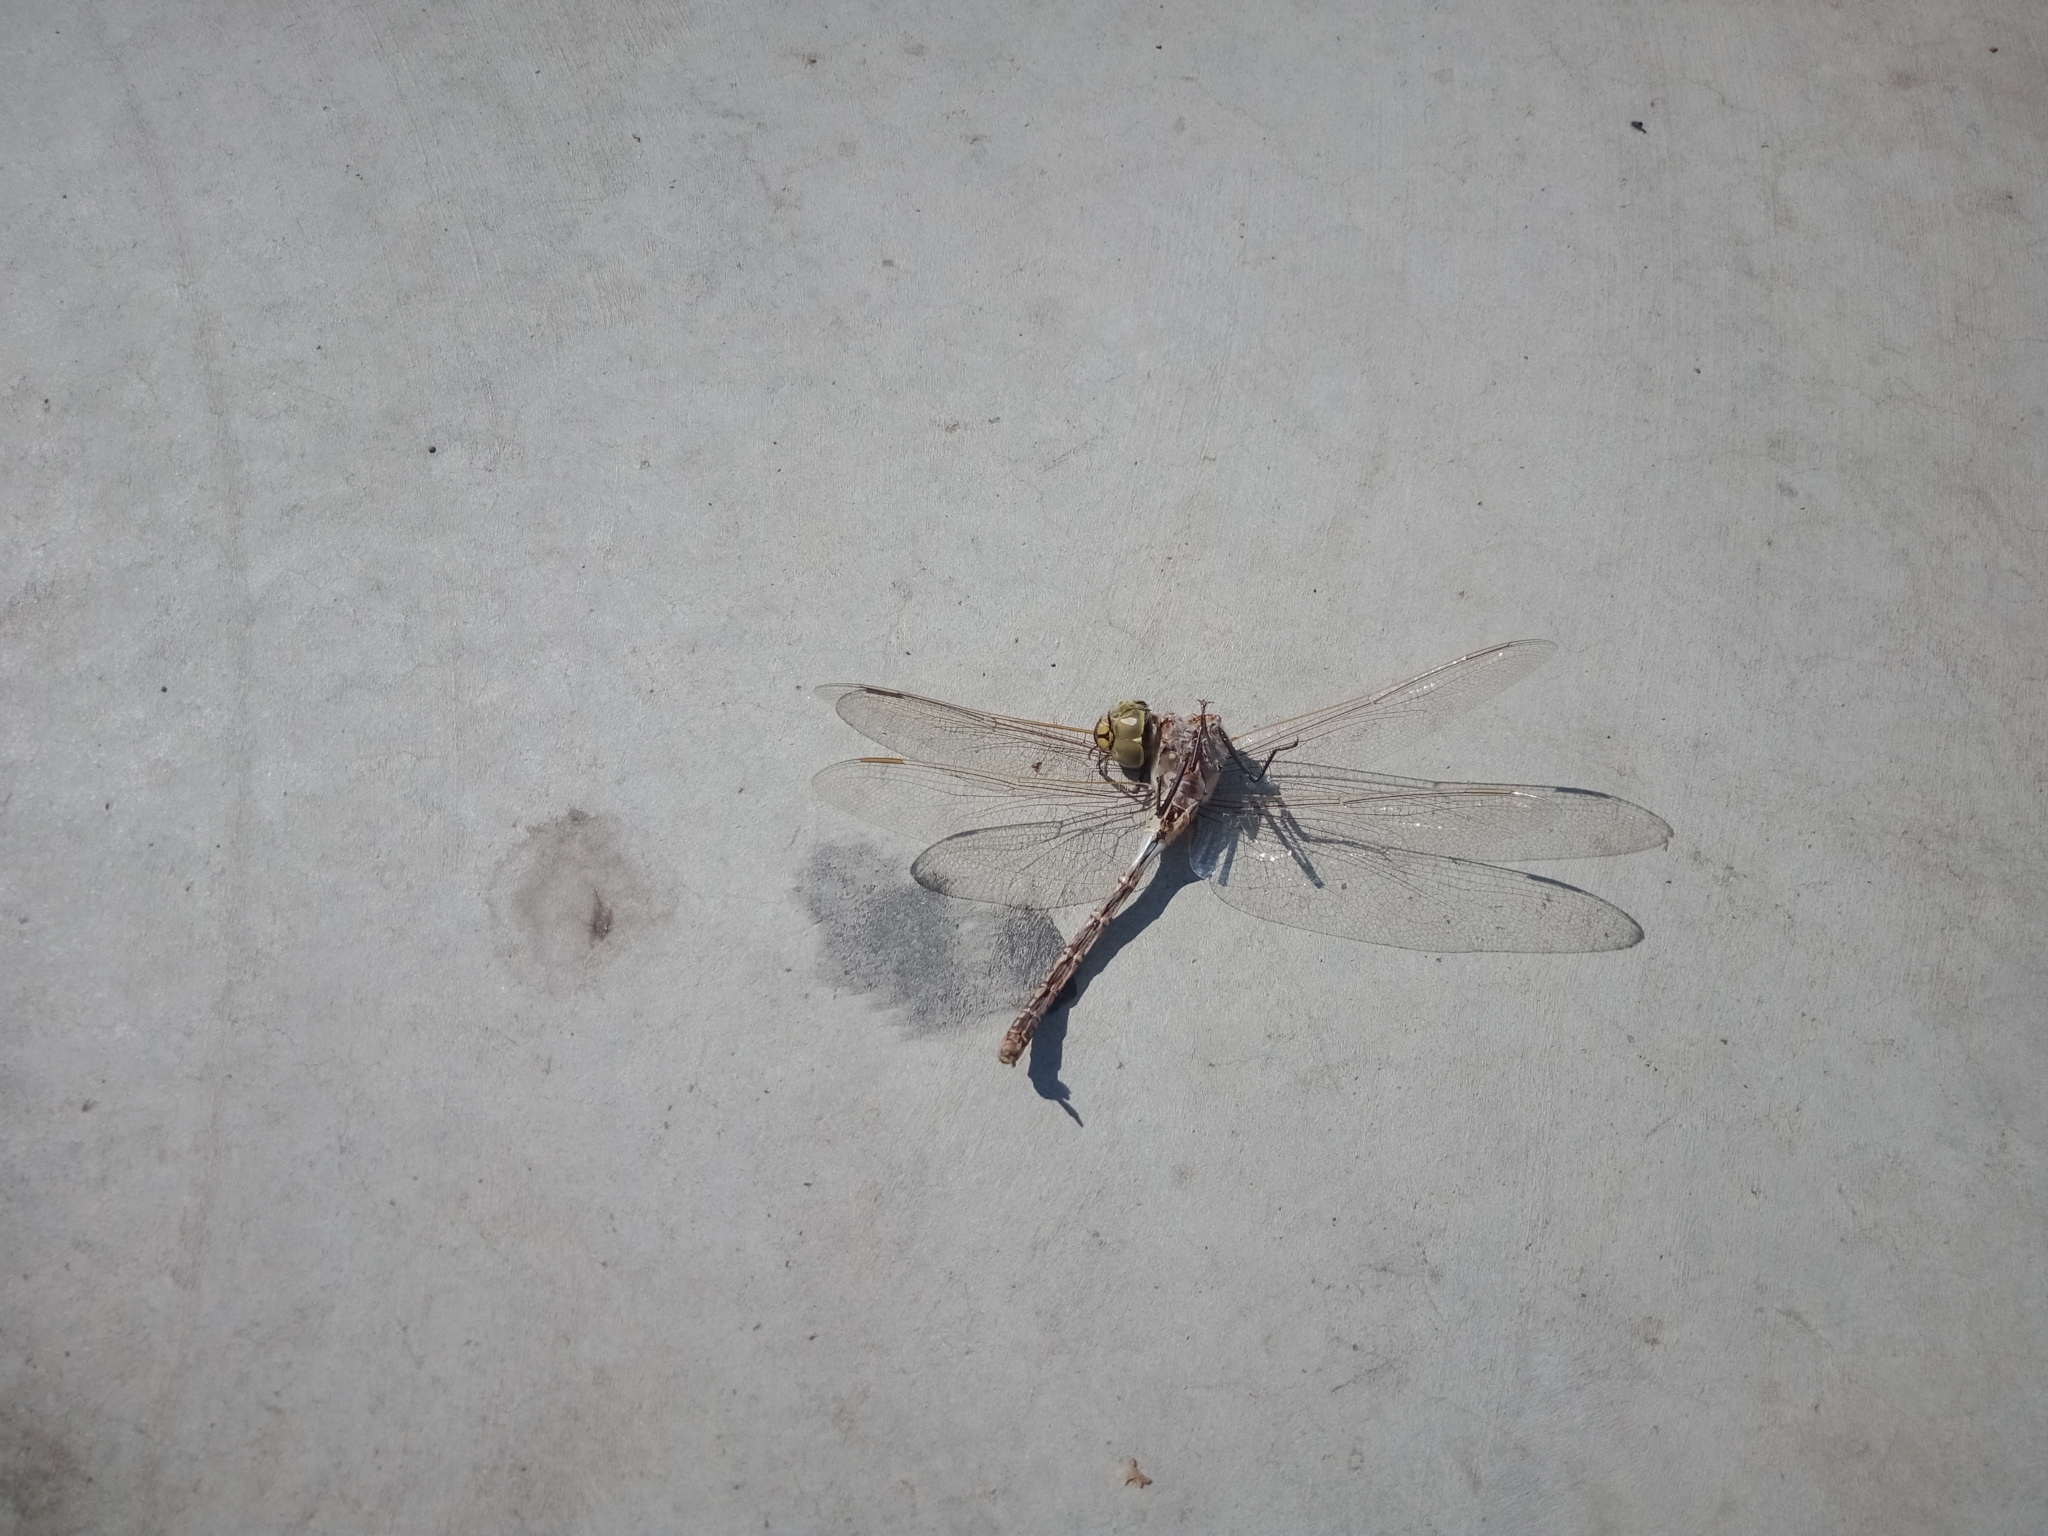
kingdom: Animalia
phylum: Arthropoda
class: Insecta
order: Odonata
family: Aeshnidae
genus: Anax
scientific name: Anax papuensis
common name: Australian emperor
